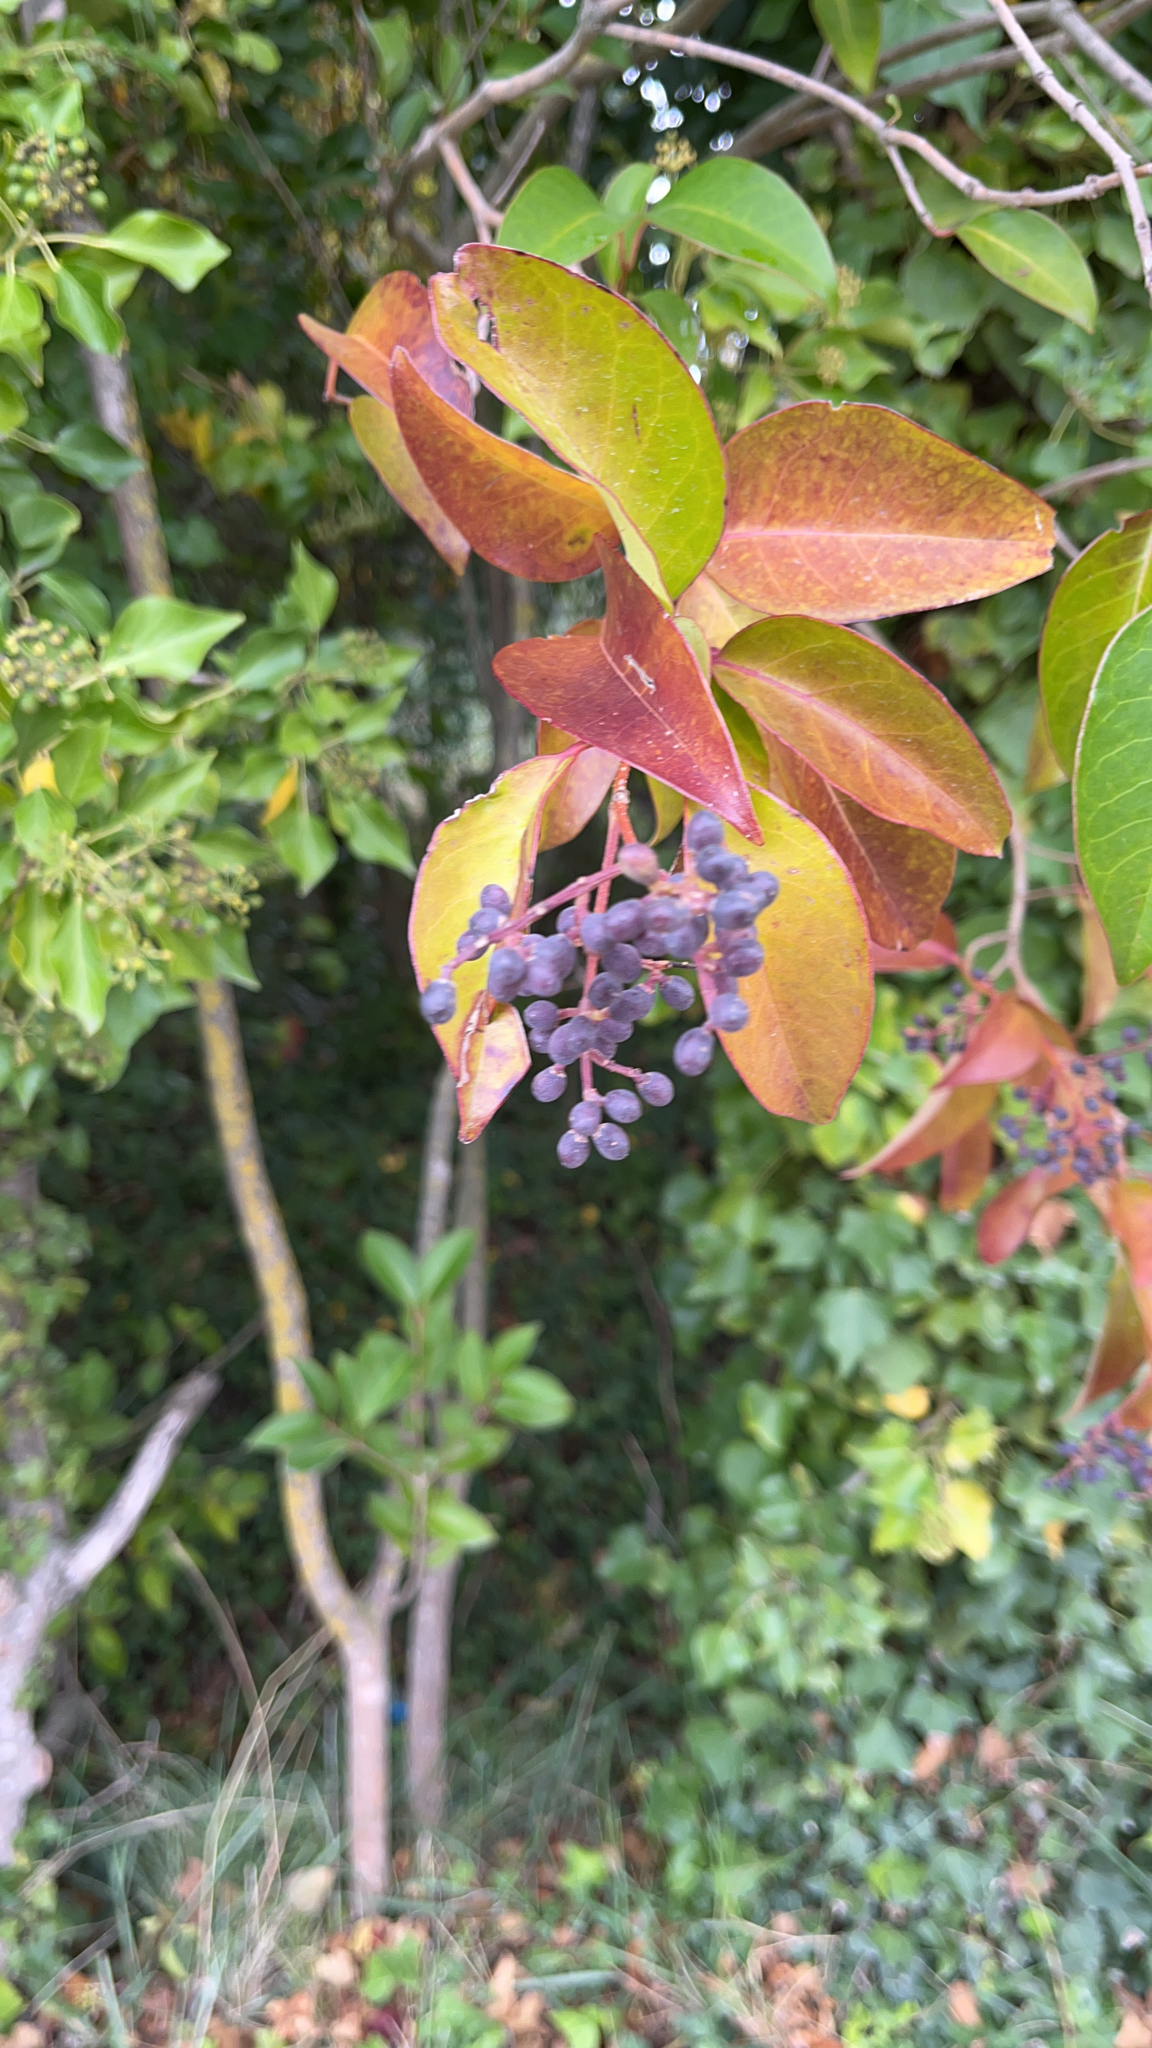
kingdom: Plantae
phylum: Tracheophyta
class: Magnoliopsida
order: Lamiales
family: Oleaceae
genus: Ligustrum
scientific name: Ligustrum lucidum
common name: Glossy privet
